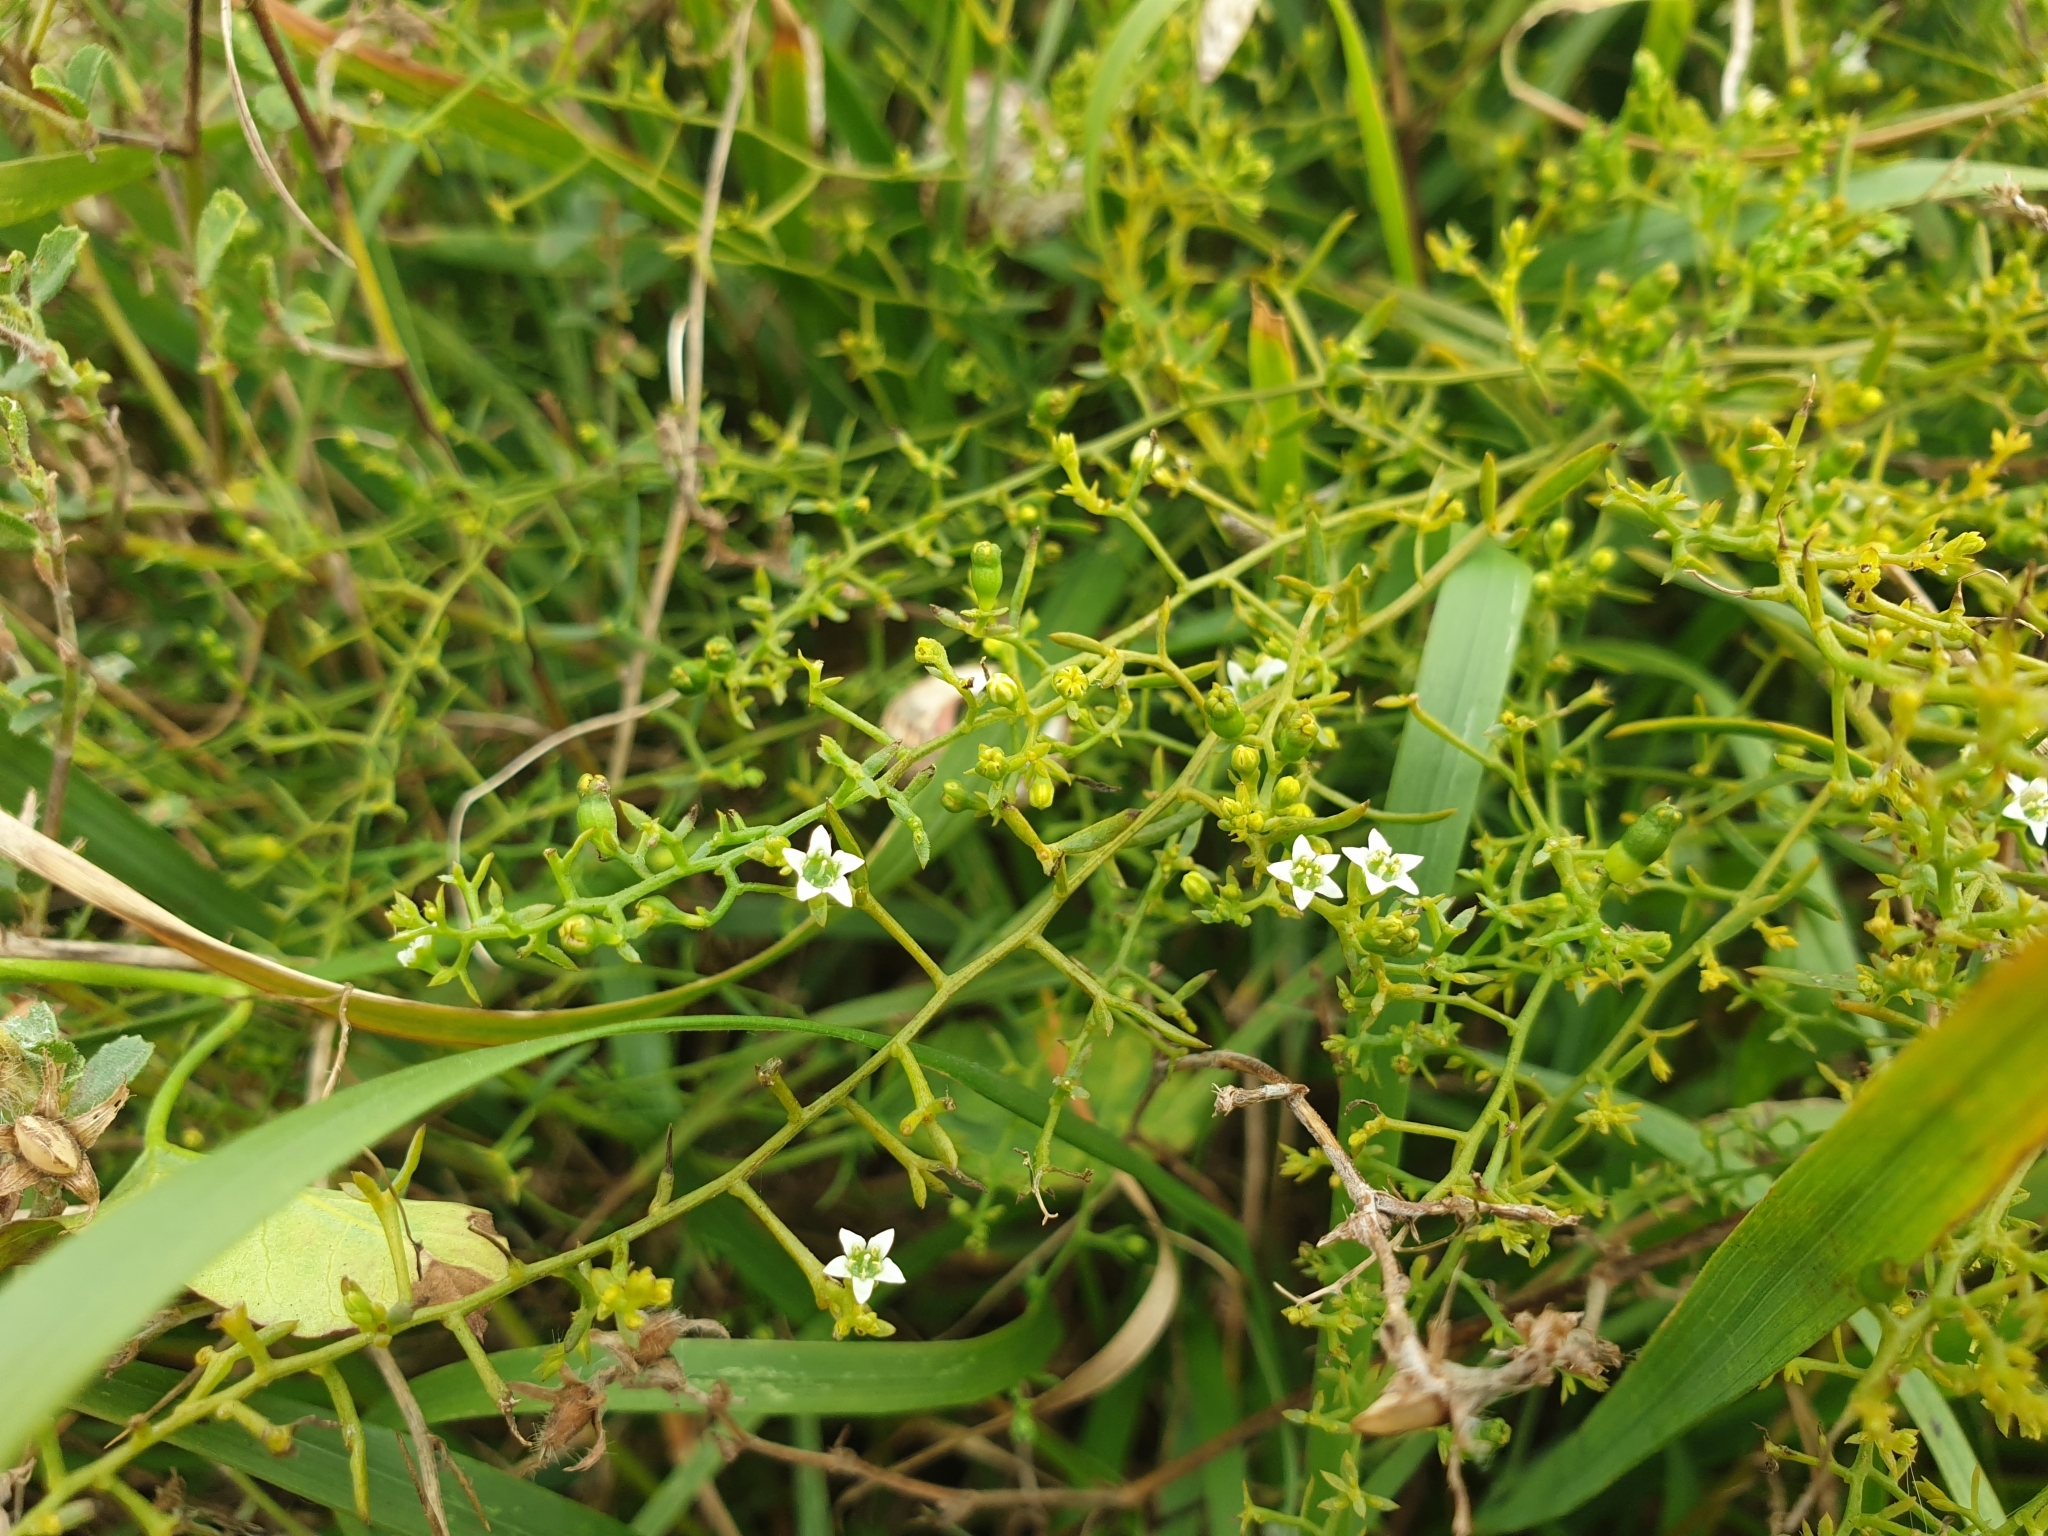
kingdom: Plantae
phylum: Tracheophyta
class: Magnoliopsida
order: Santalales
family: Thesiaceae
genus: Thesium
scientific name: Thesium humifusum
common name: Bastard-toadflax
